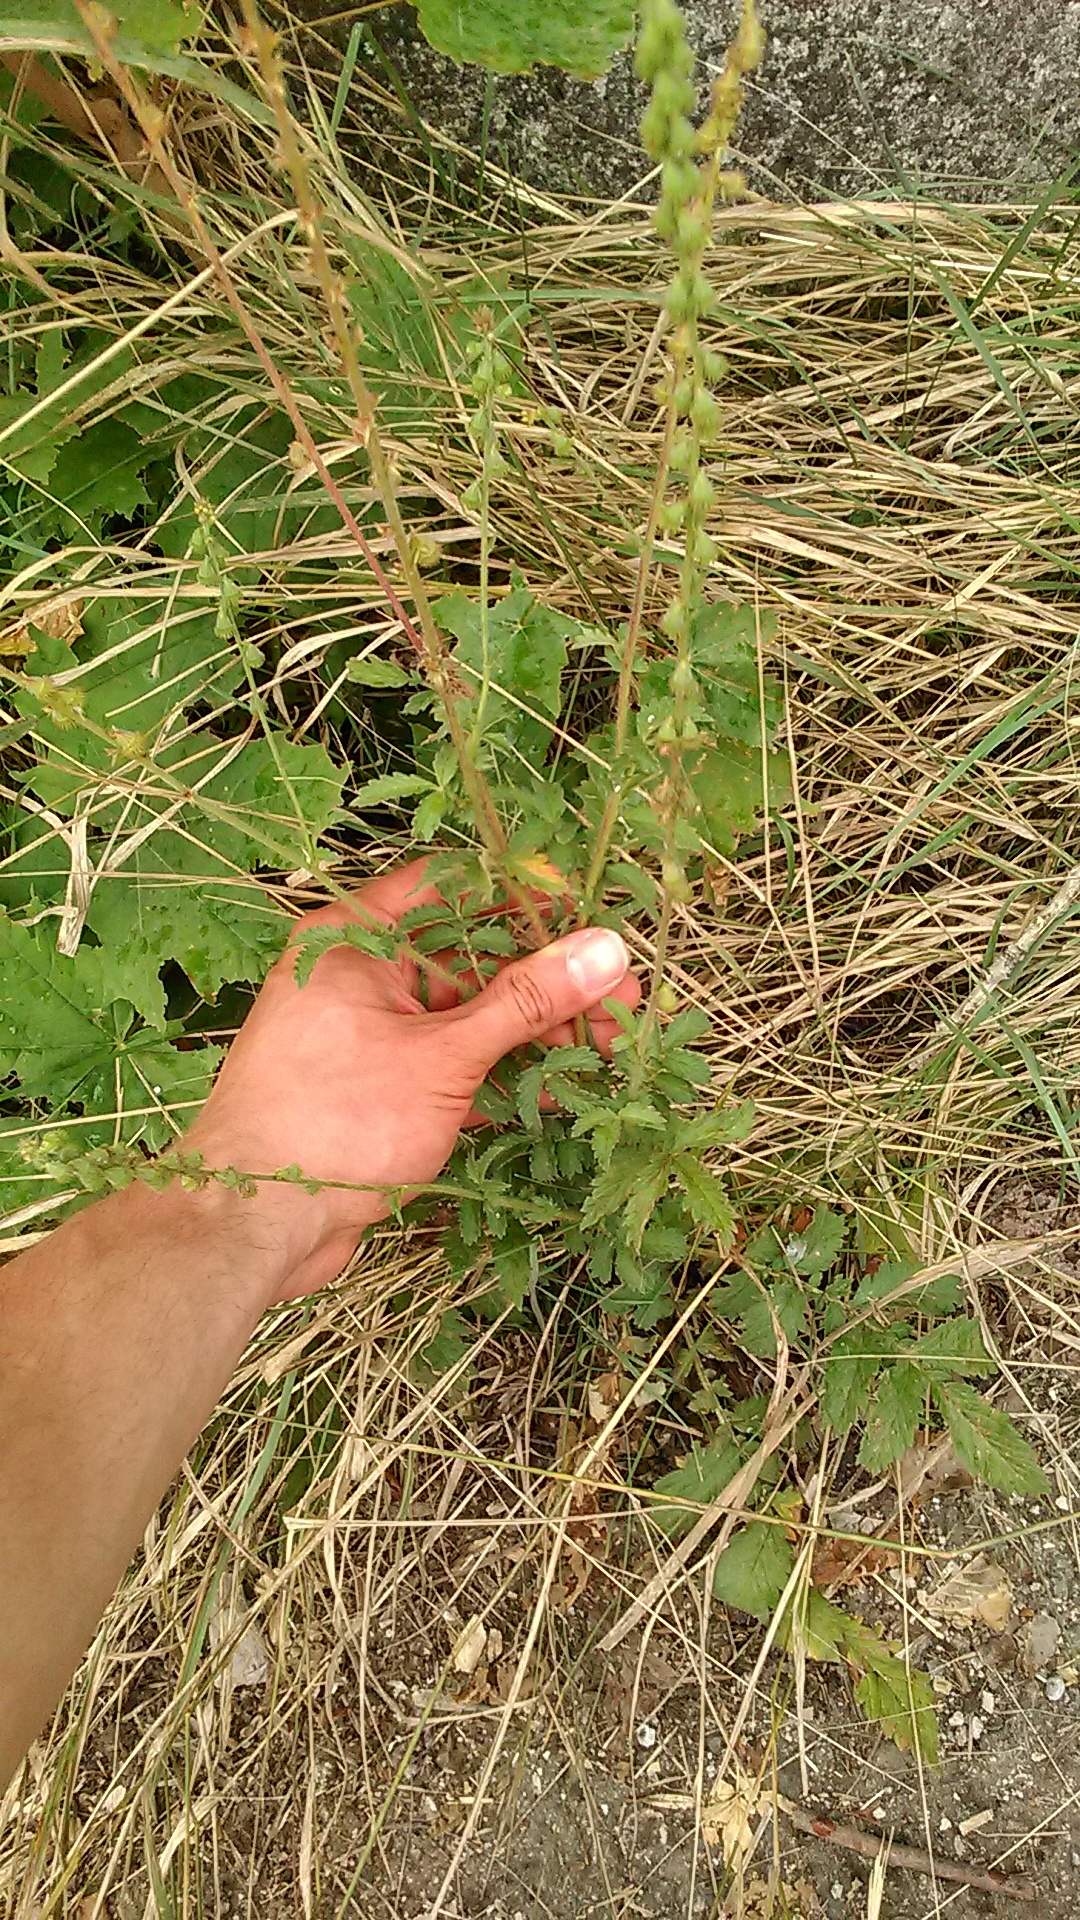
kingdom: Plantae
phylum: Tracheophyta
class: Magnoliopsida
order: Rosales
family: Rosaceae
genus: Agrimonia
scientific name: Agrimonia eupatoria
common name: Agrimony
